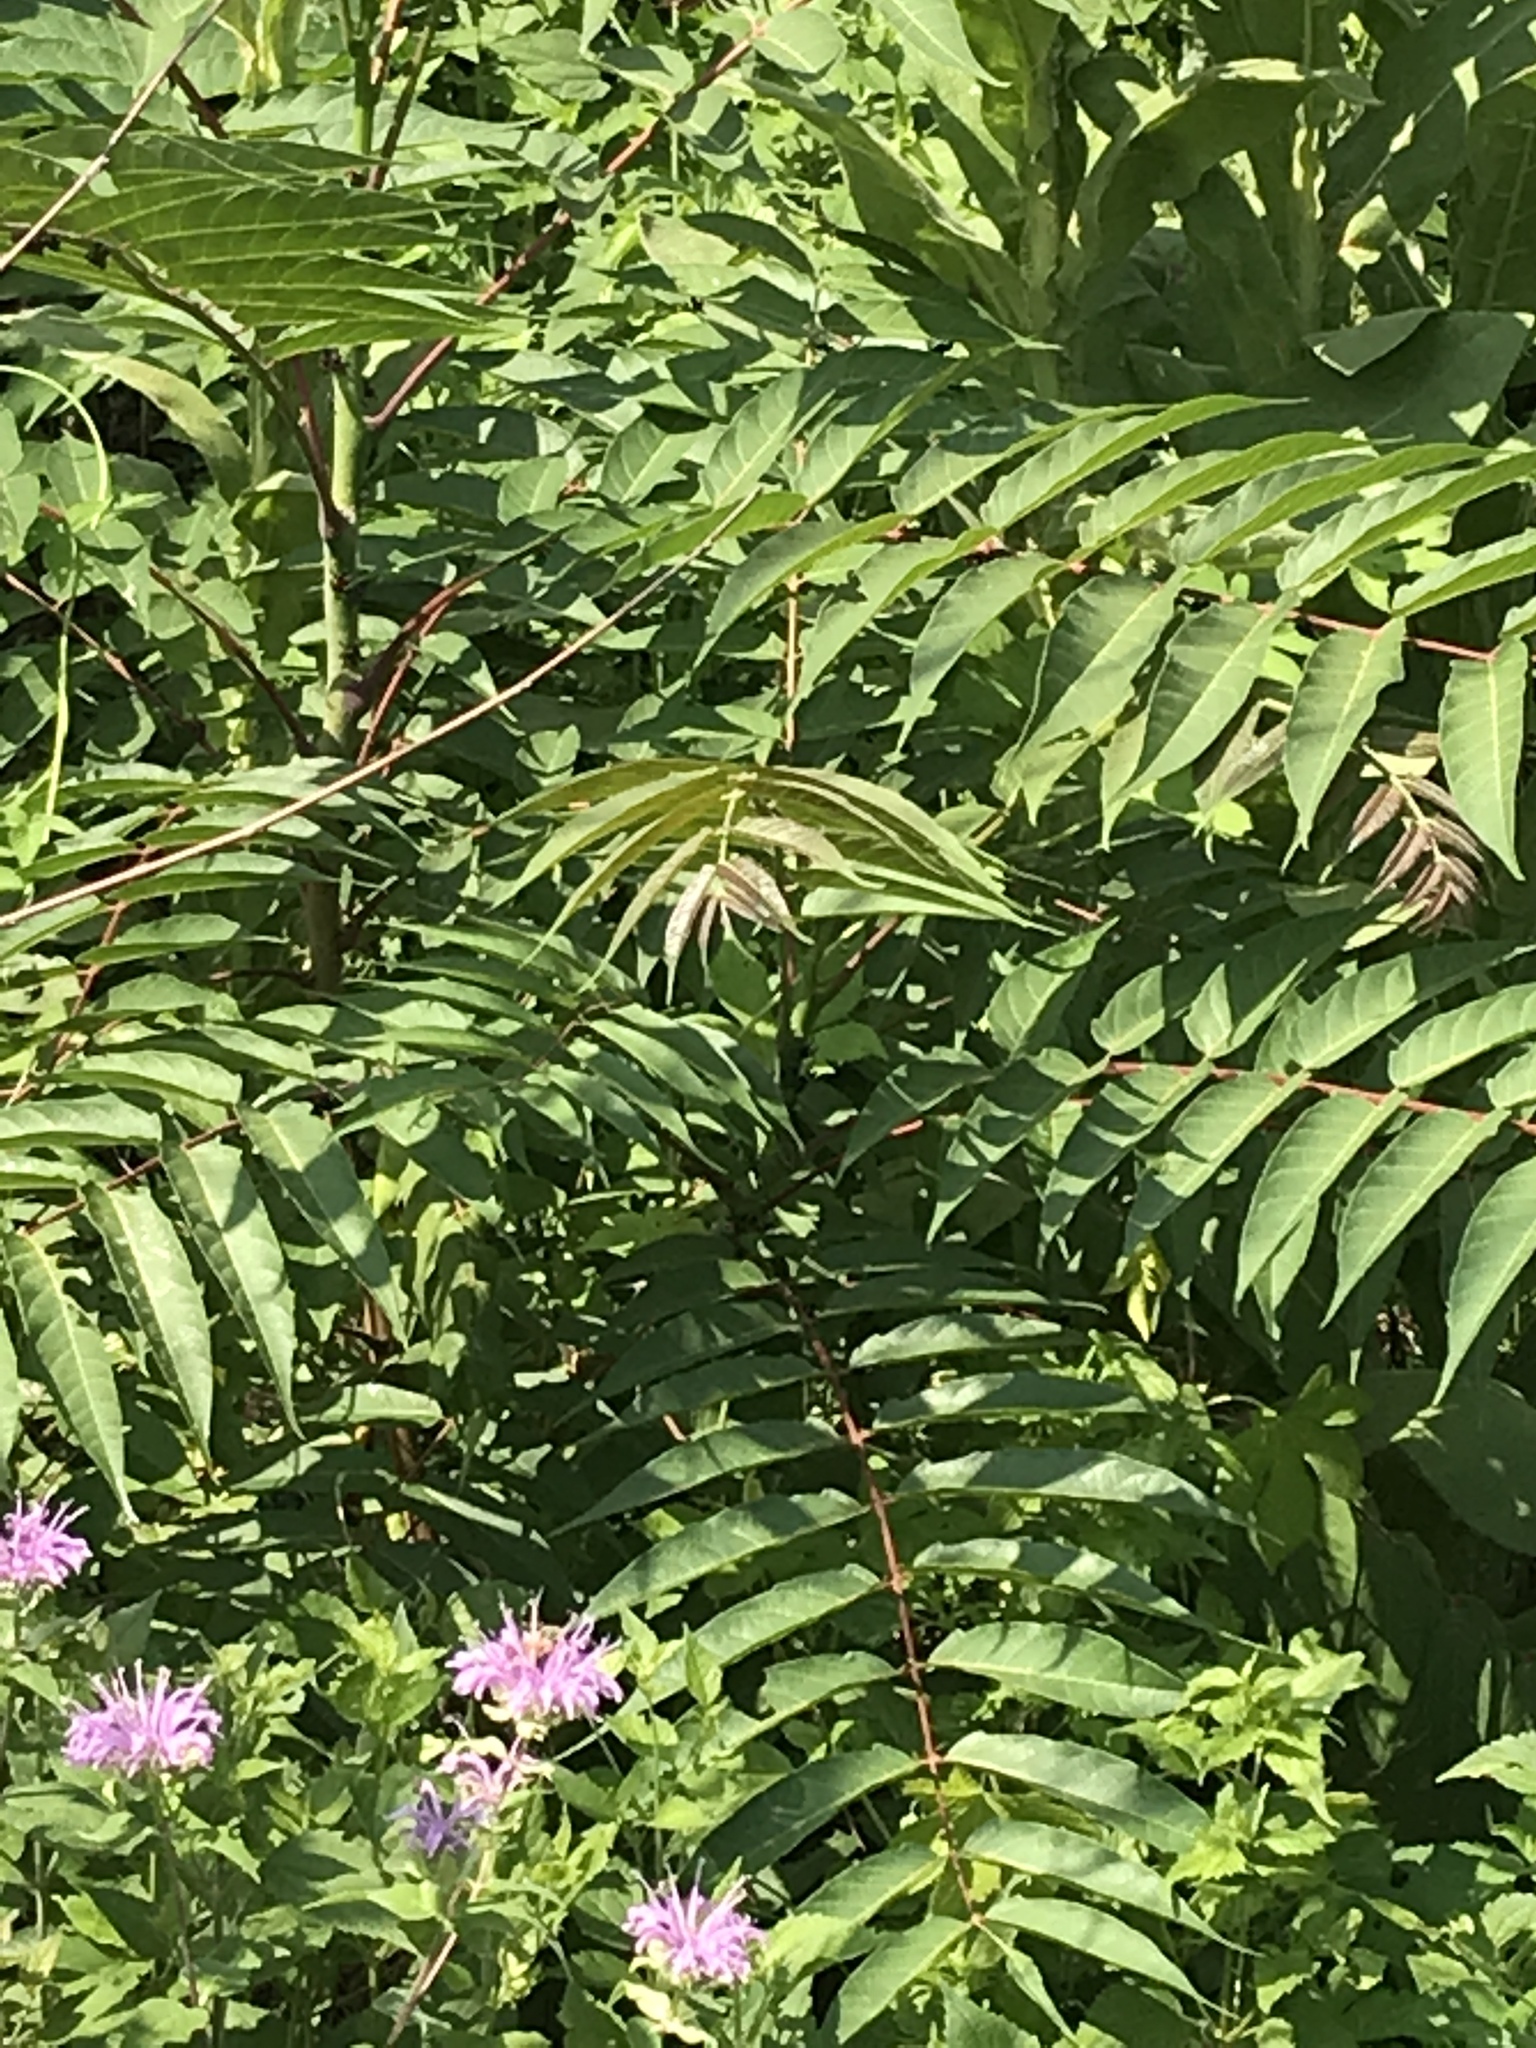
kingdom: Plantae
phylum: Tracheophyta
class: Magnoliopsida
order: Sapindales
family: Simaroubaceae
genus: Ailanthus
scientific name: Ailanthus altissima
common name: Tree-of-heaven
